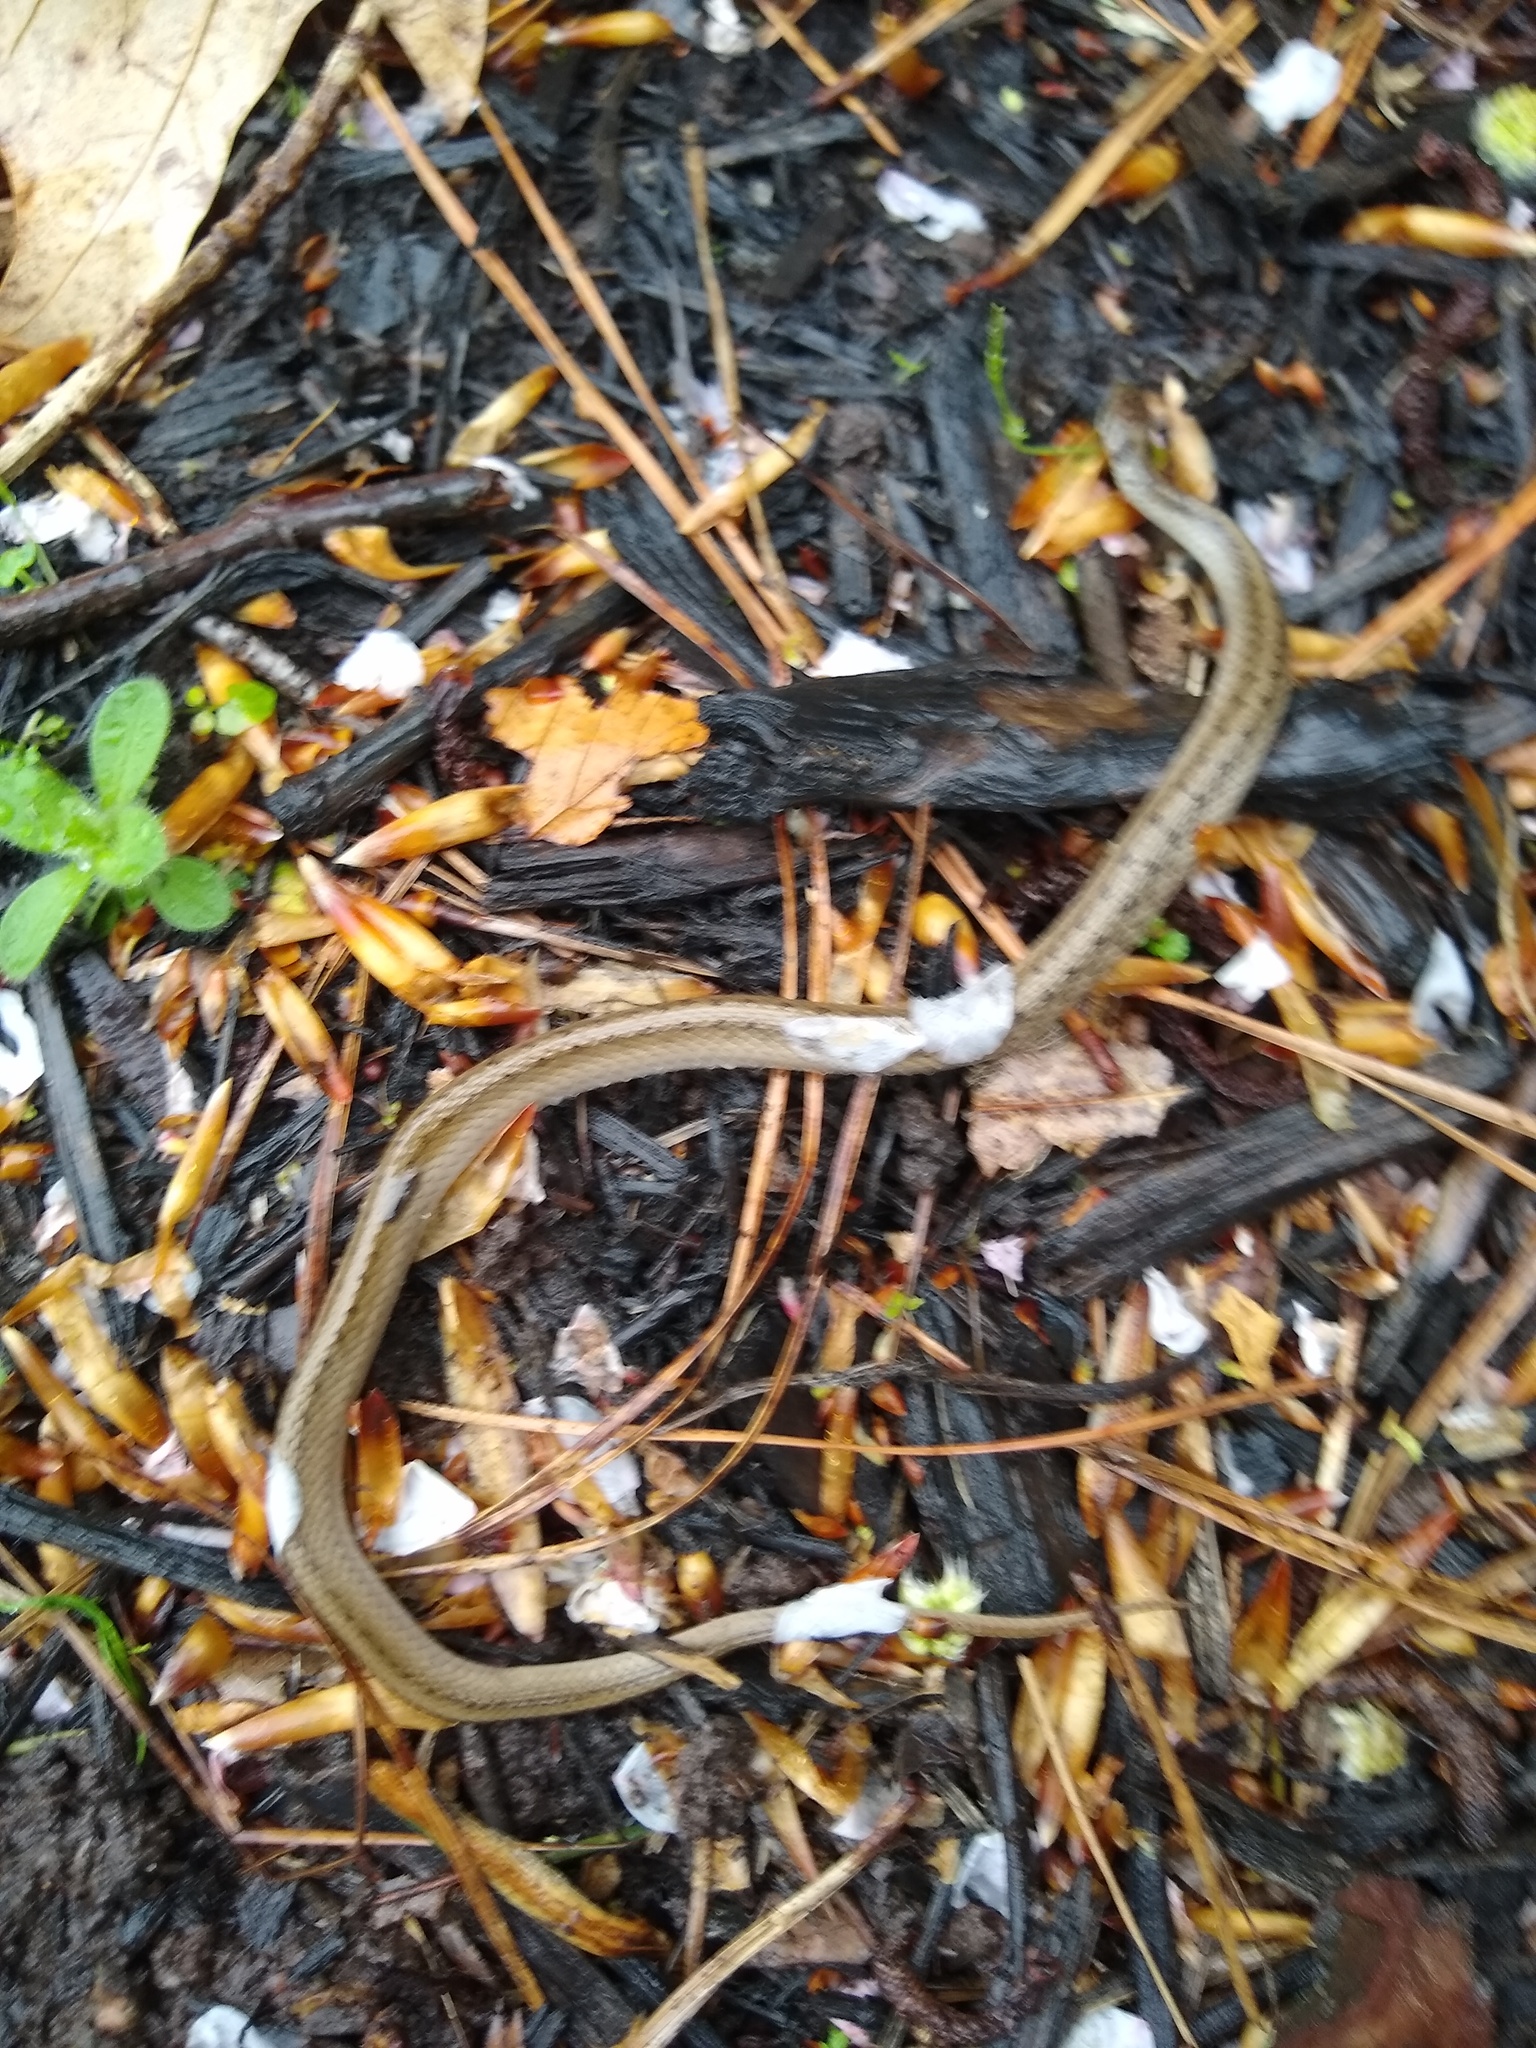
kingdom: Animalia
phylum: Chordata
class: Squamata
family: Colubridae
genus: Storeria
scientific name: Storeria dekayi
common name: (dekay’s) brown snake
